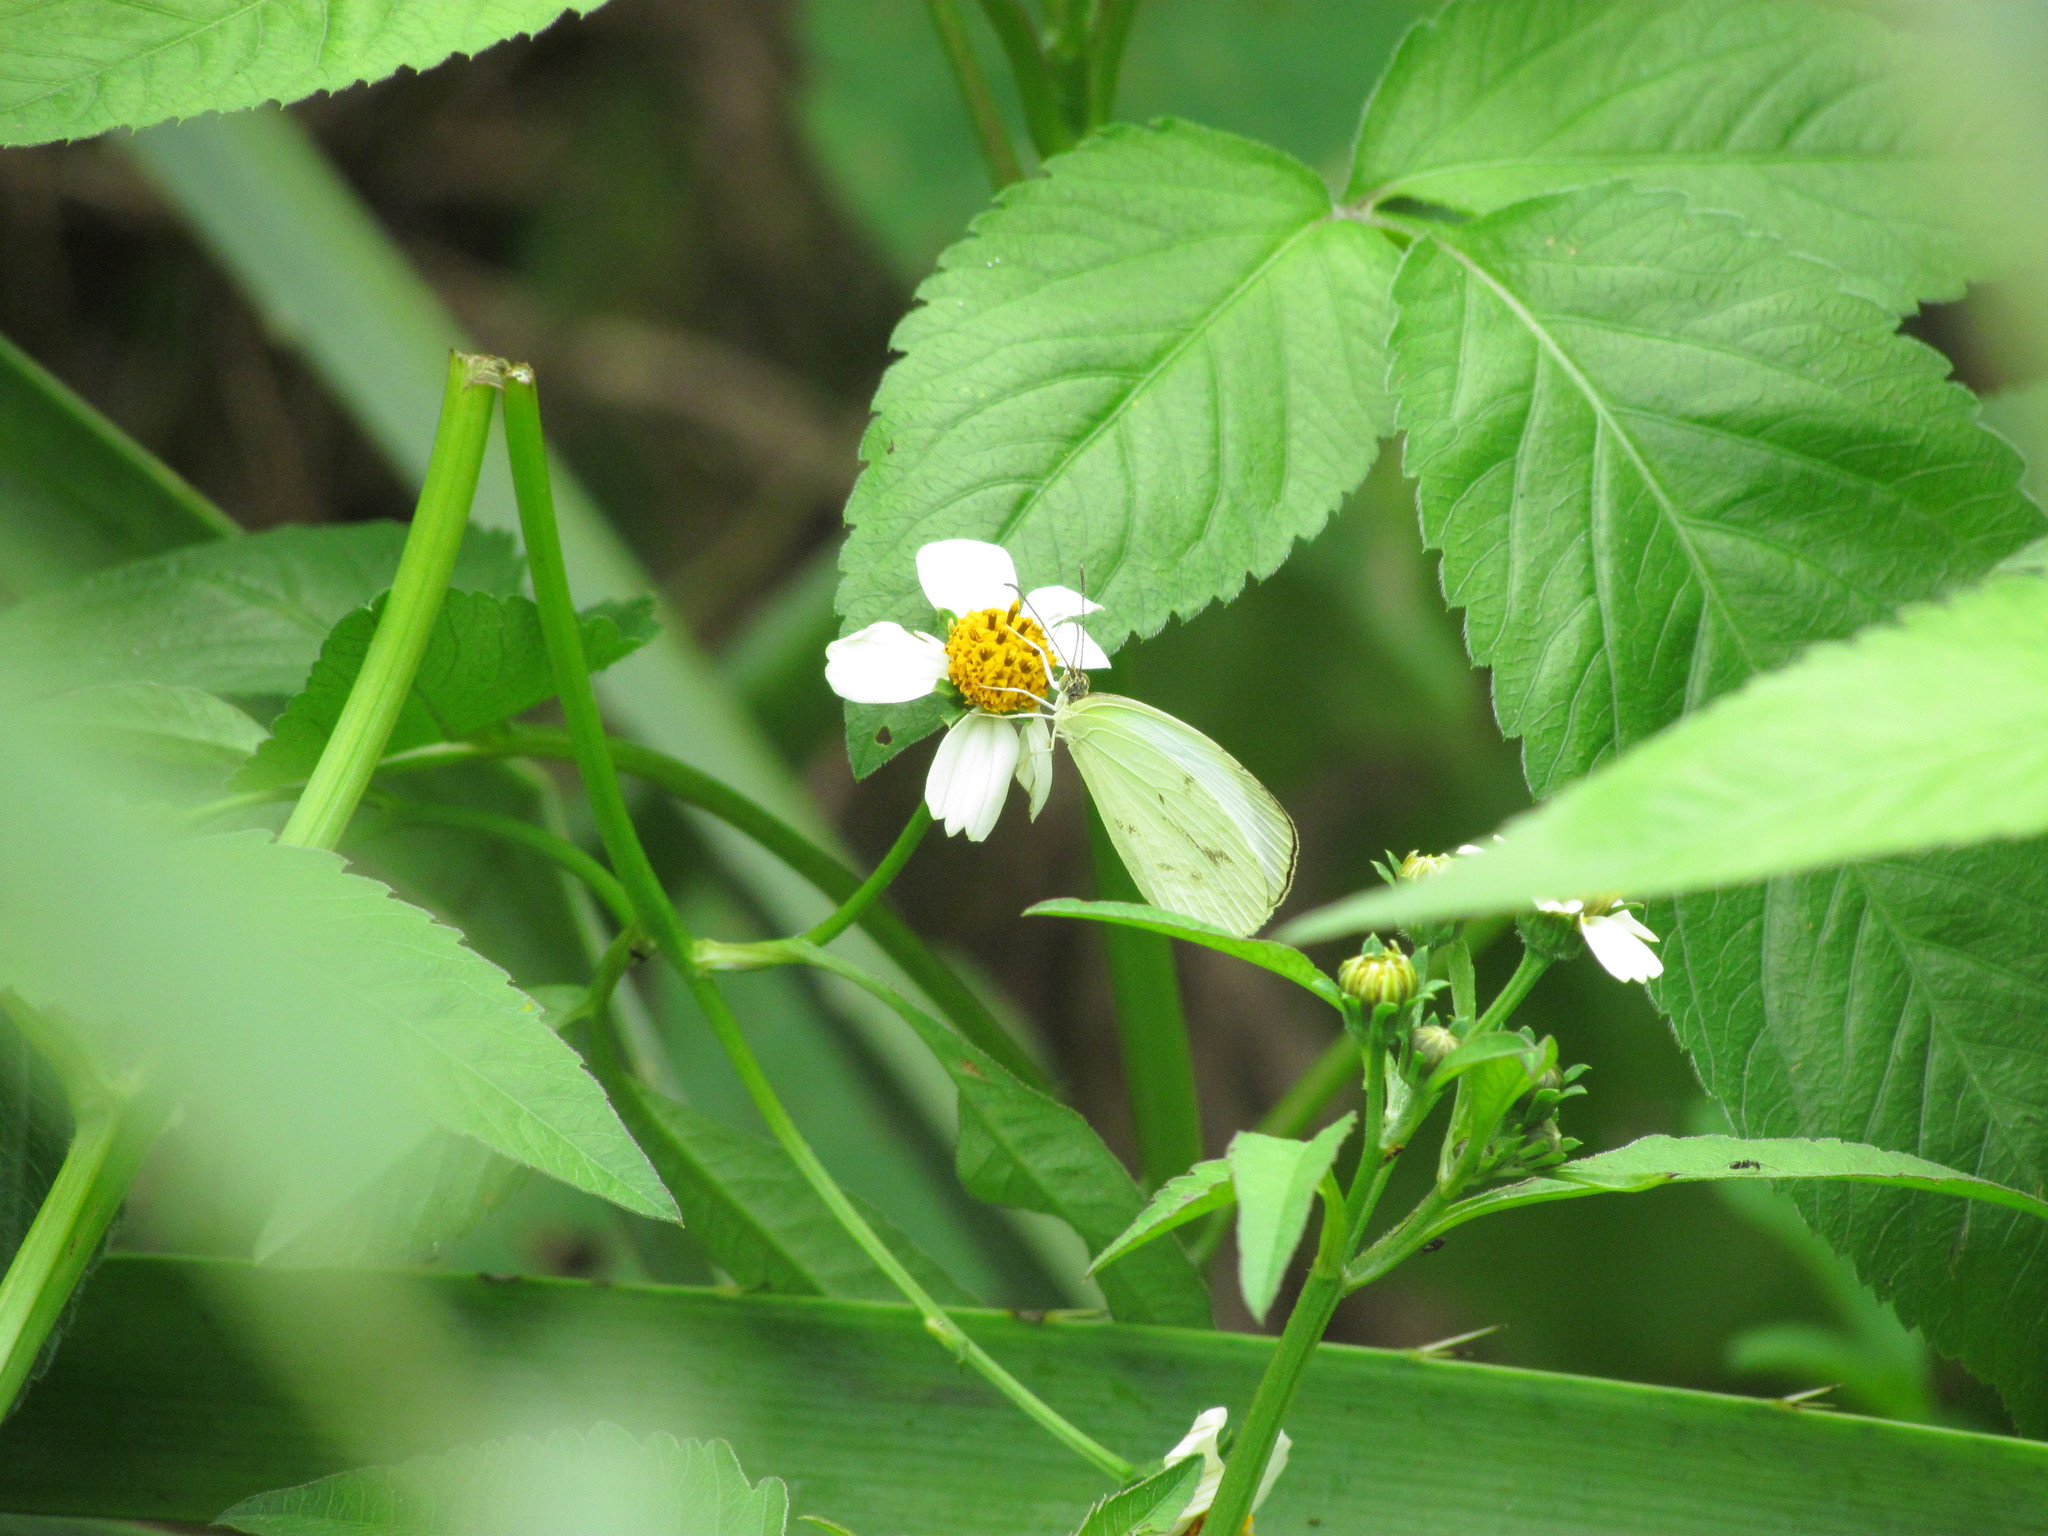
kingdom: Animalia
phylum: Arthropoda
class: Insecta
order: Lepidoptera
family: Pieridae
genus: Abaeis
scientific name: Abaeis albula
